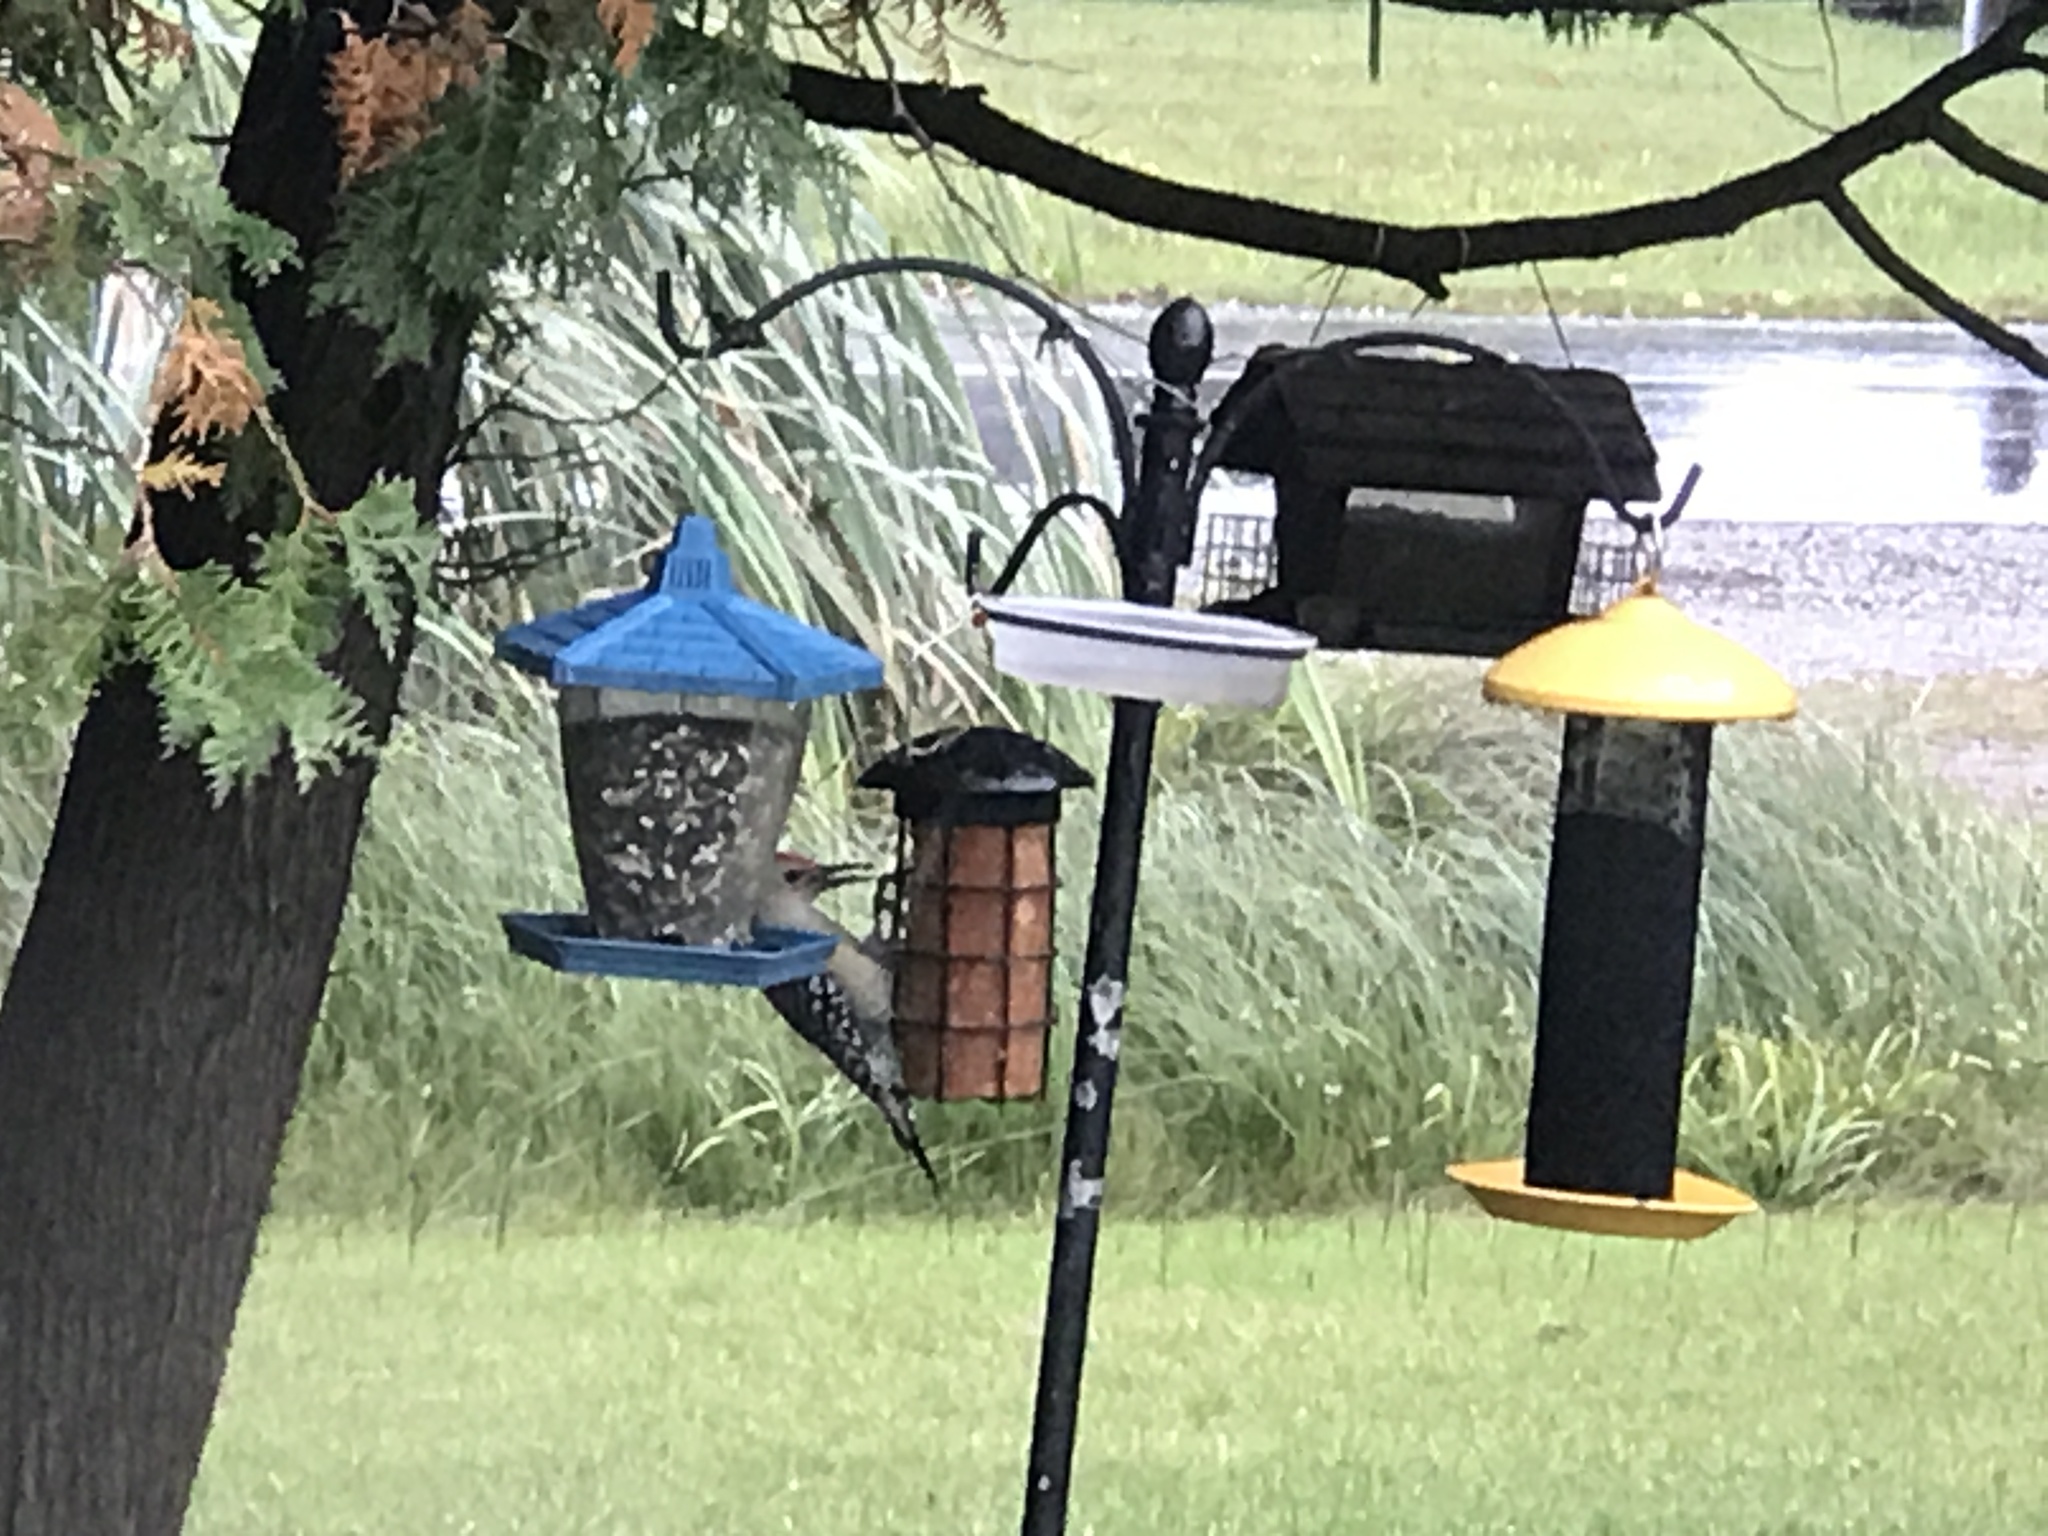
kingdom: Animalia
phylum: Chordata
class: Aves
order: Piciformes
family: Picidae
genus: Melanerpes
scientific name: Melanerpes carolinus
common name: Red-bellied woodpecker
